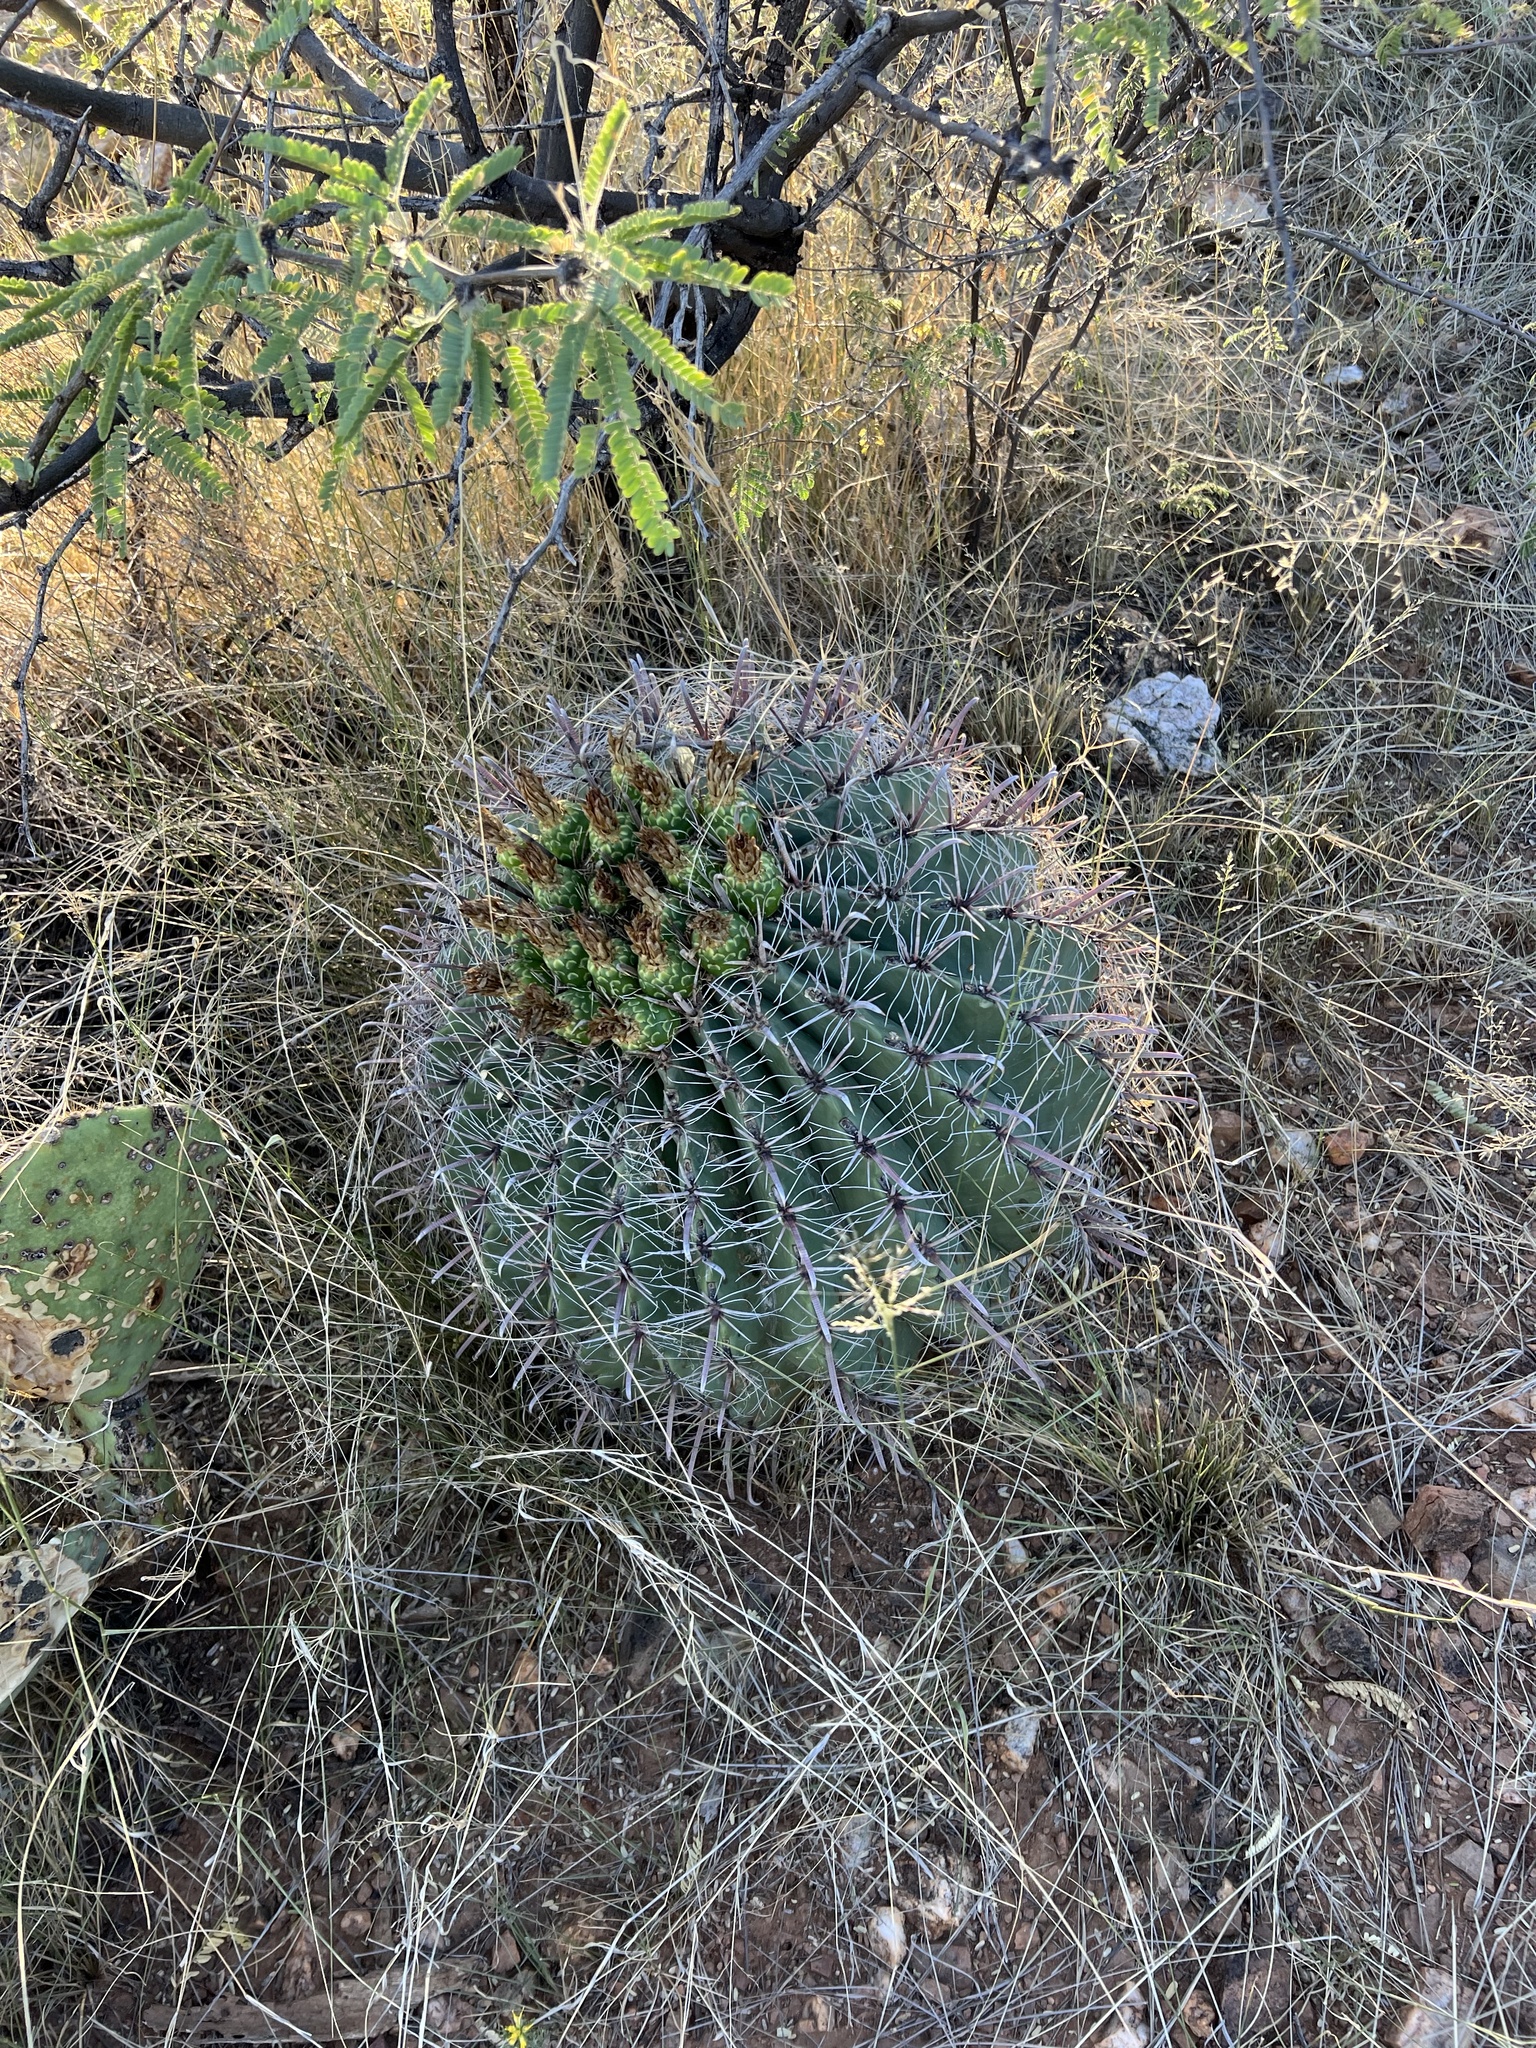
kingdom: Plantae
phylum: Tracheophyta
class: Magnoliopsida
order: Caryophyllales
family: Cactaceae
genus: Ferocactus
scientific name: Ferocactus wislizeni
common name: Candy barrel cactus
